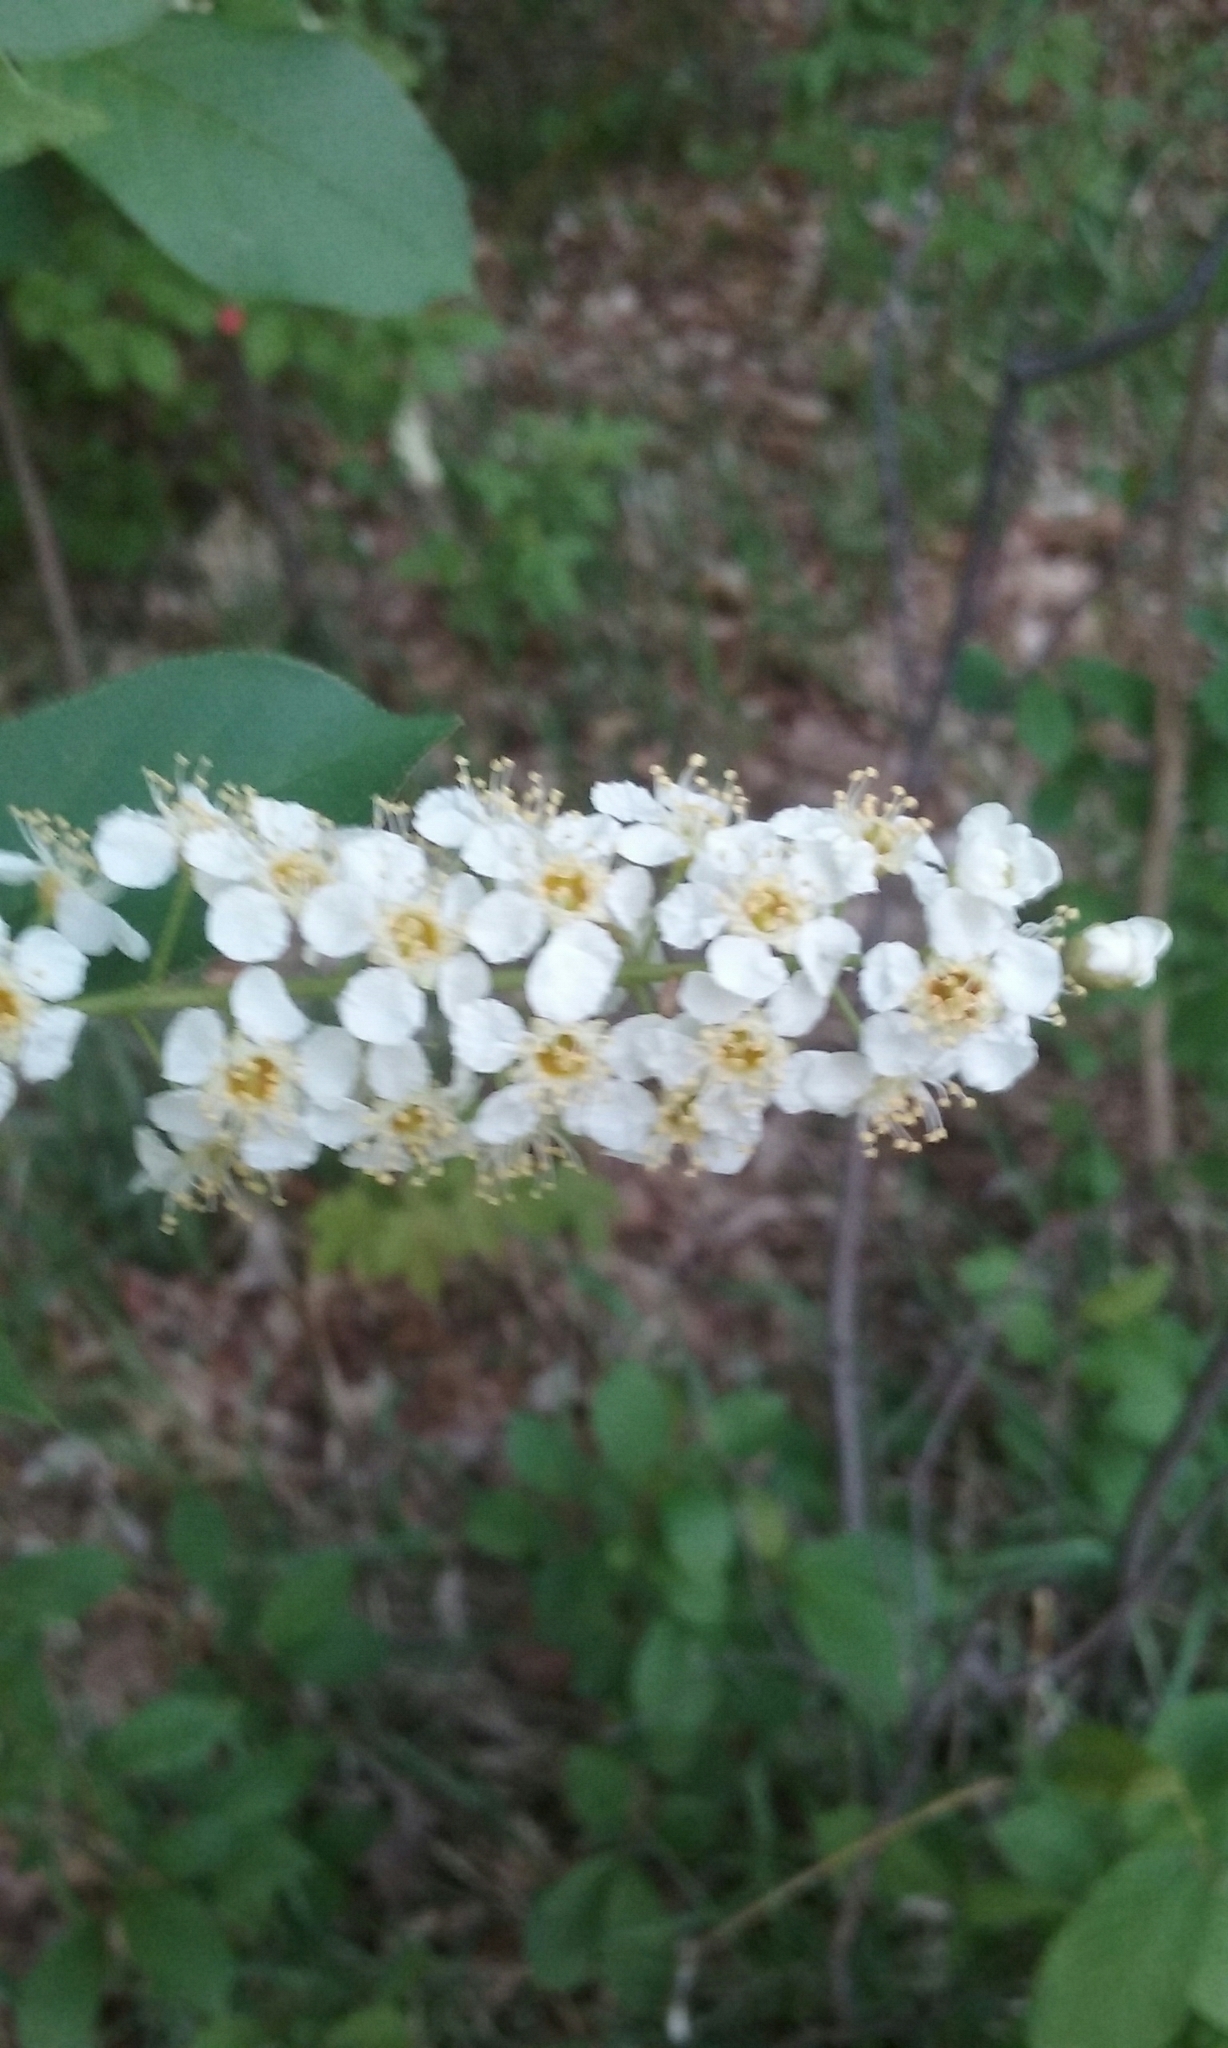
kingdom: Plantae
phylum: Tracheophyta
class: Magnoliopsida
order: Rosales
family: Rosaceae
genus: Prunus
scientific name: Prunus virginiana
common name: Chokecherry
